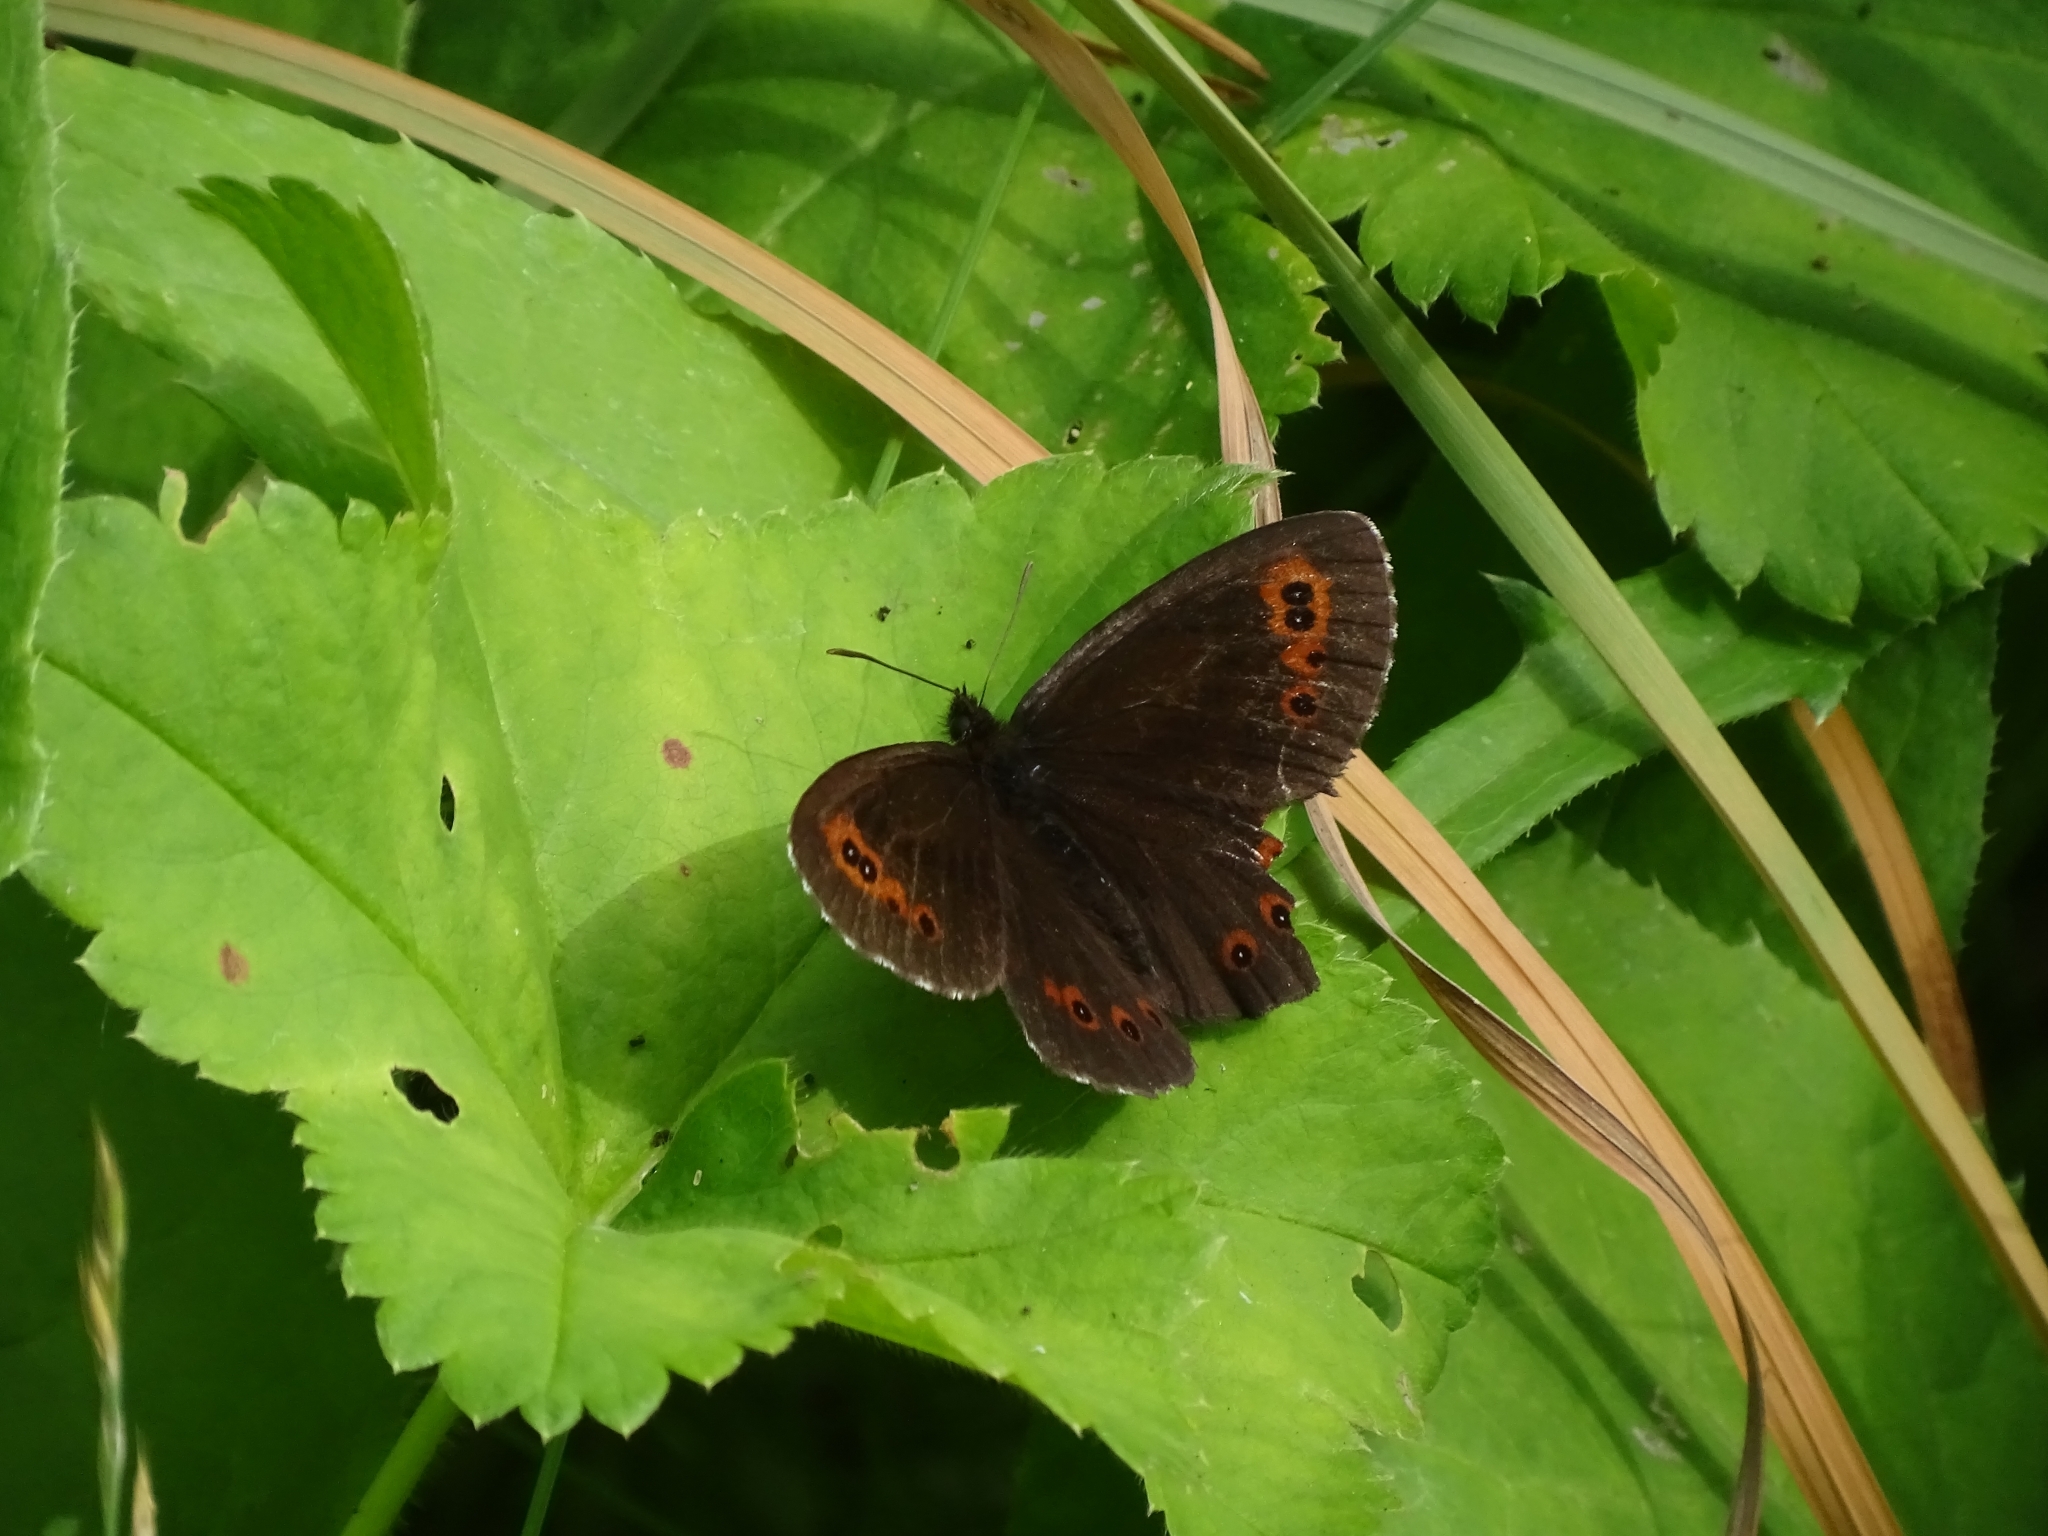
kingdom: Animalia
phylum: Arthropoda
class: Insecta
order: Lepidoptera
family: Nymphalidae
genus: Erebia
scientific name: Erebia ligea
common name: Arran brown
